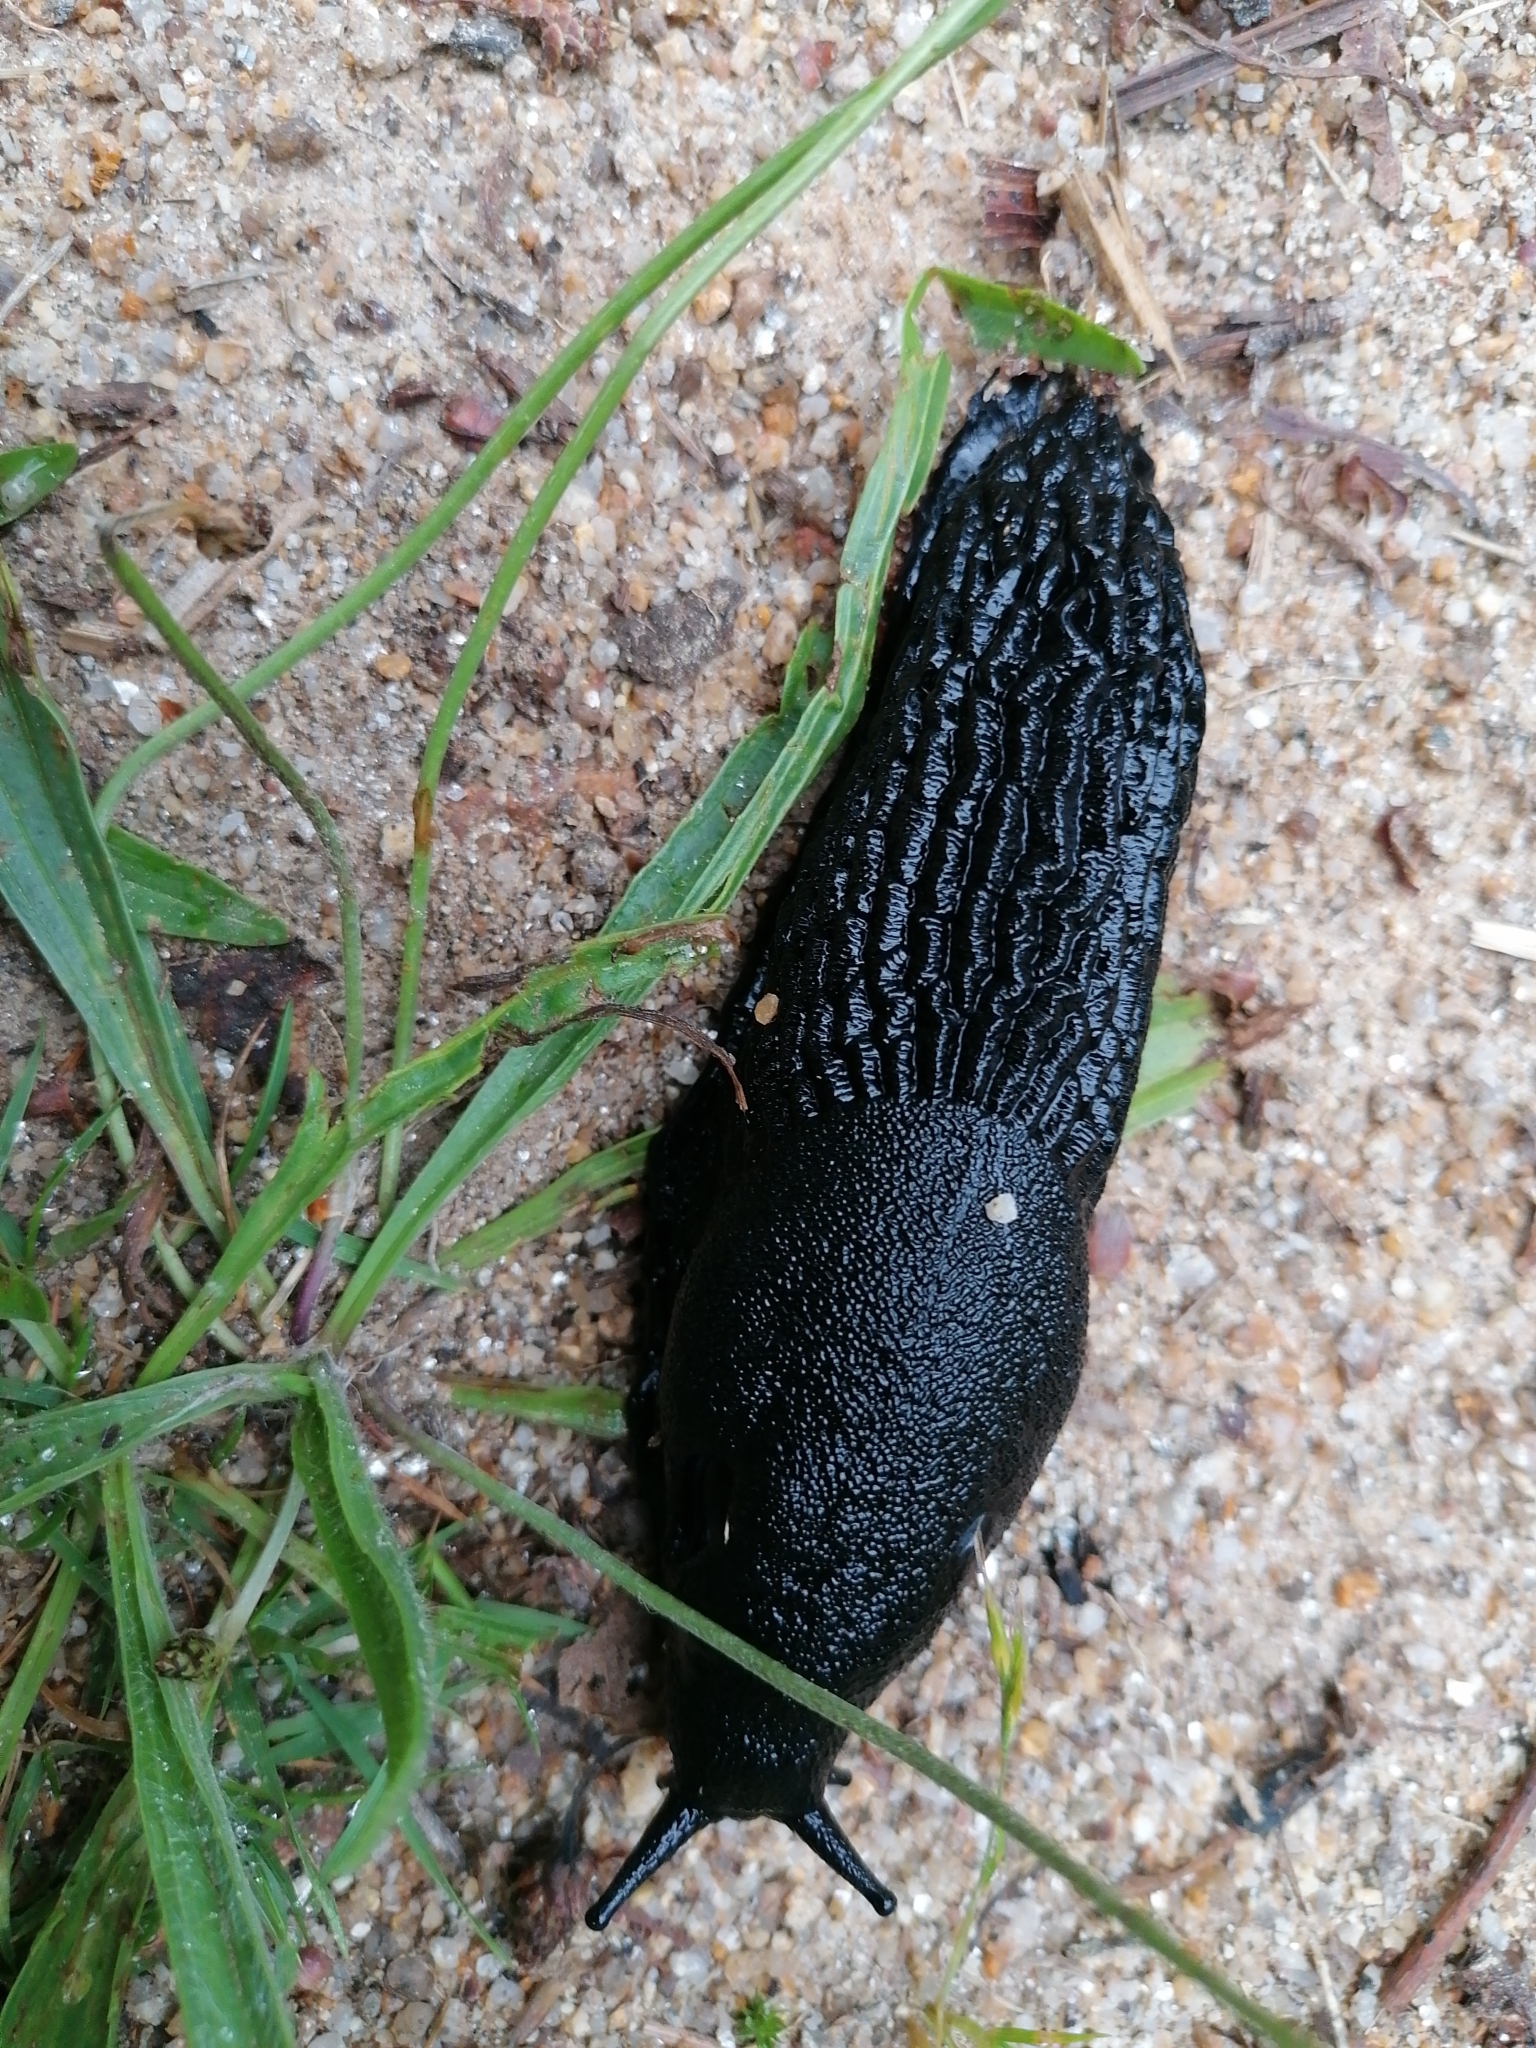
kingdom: Animalia
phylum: Mollusca
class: Gastropoda
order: Stylommatophora
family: Arionidae
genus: Arion
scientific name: Arion ater
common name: Black arion
